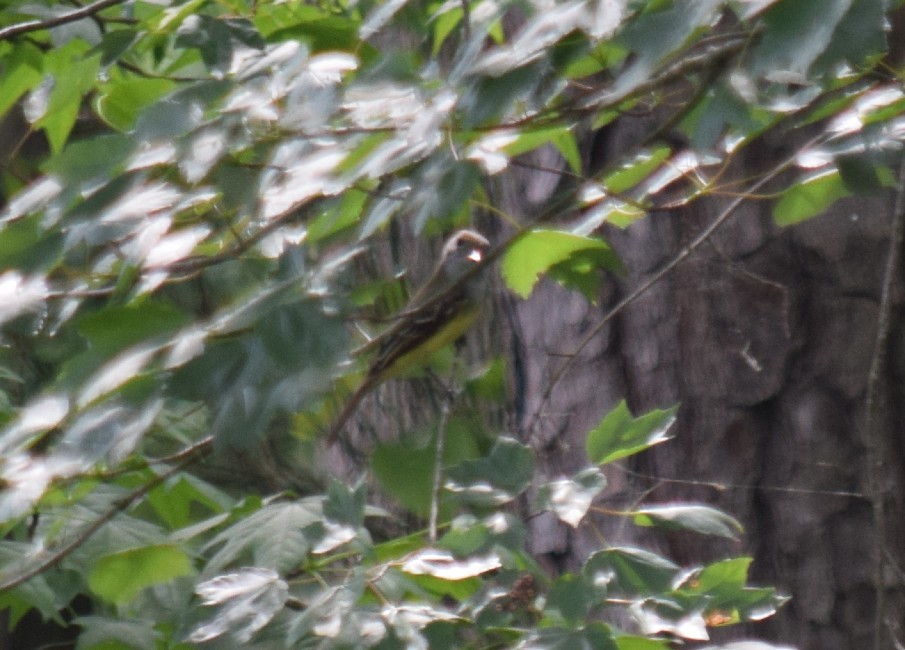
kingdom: Animalia
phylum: Chordata
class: Aves
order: Passeriformes
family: Tyrannidae
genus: Myiarchus
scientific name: Myiarchus crinitus
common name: Great crested flycatcher
